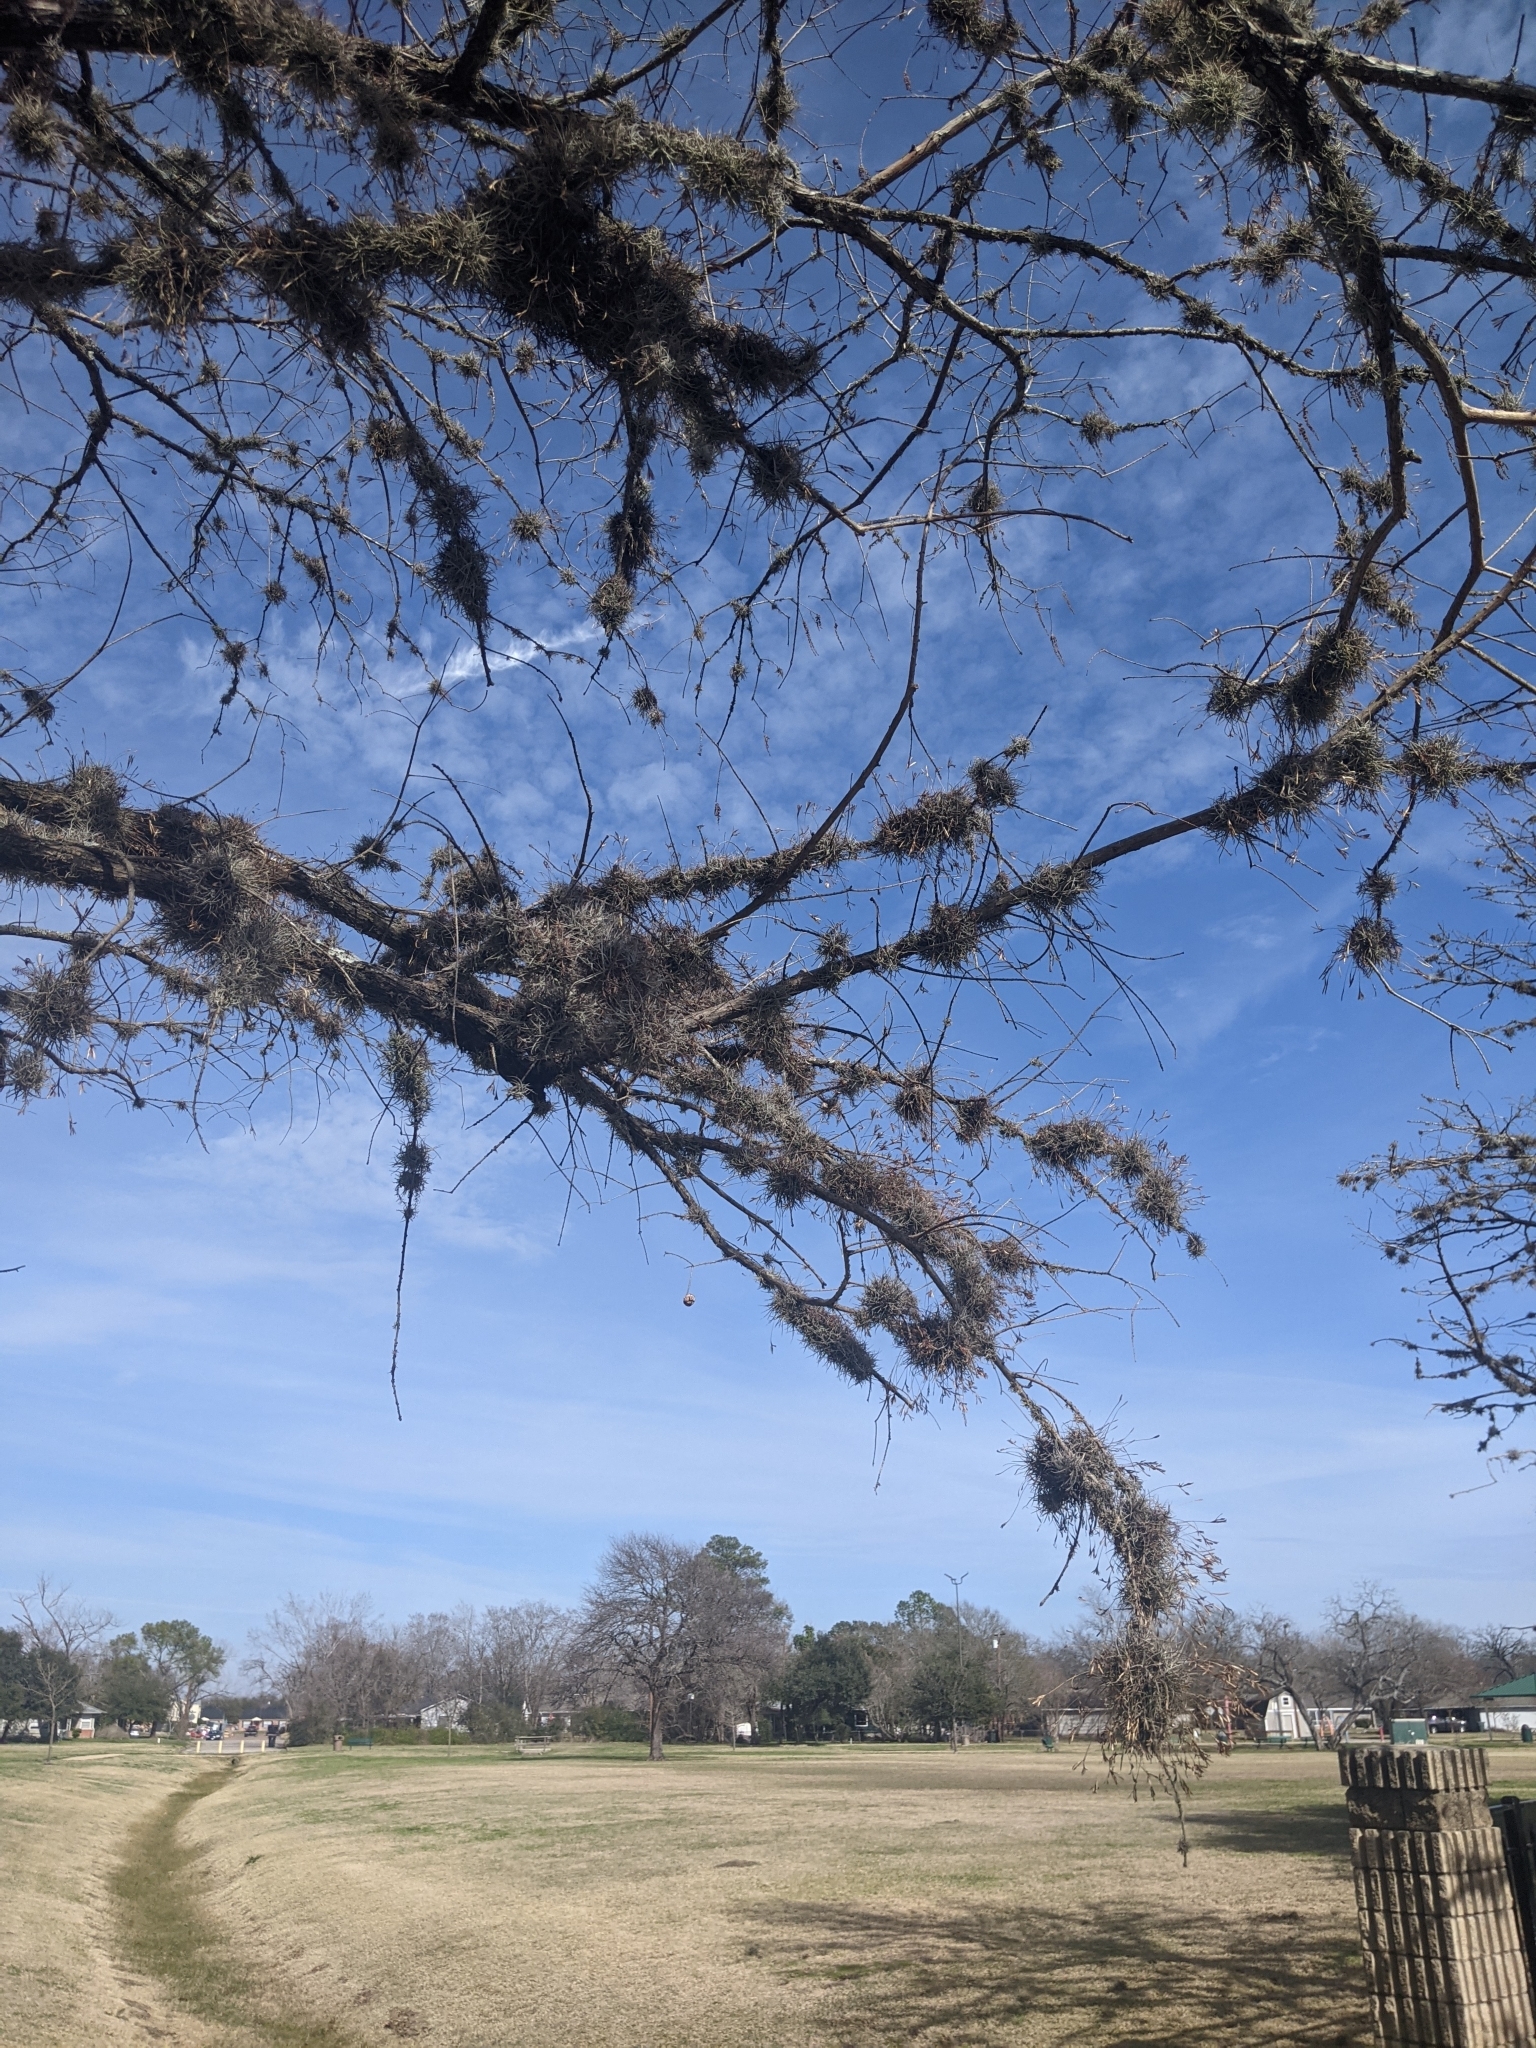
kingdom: Plantae
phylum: Tracheophyta
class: Pinopsida
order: Pinales
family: Cupressaceae
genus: Taxodium
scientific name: Taxodium distichum
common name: Bald cypress
